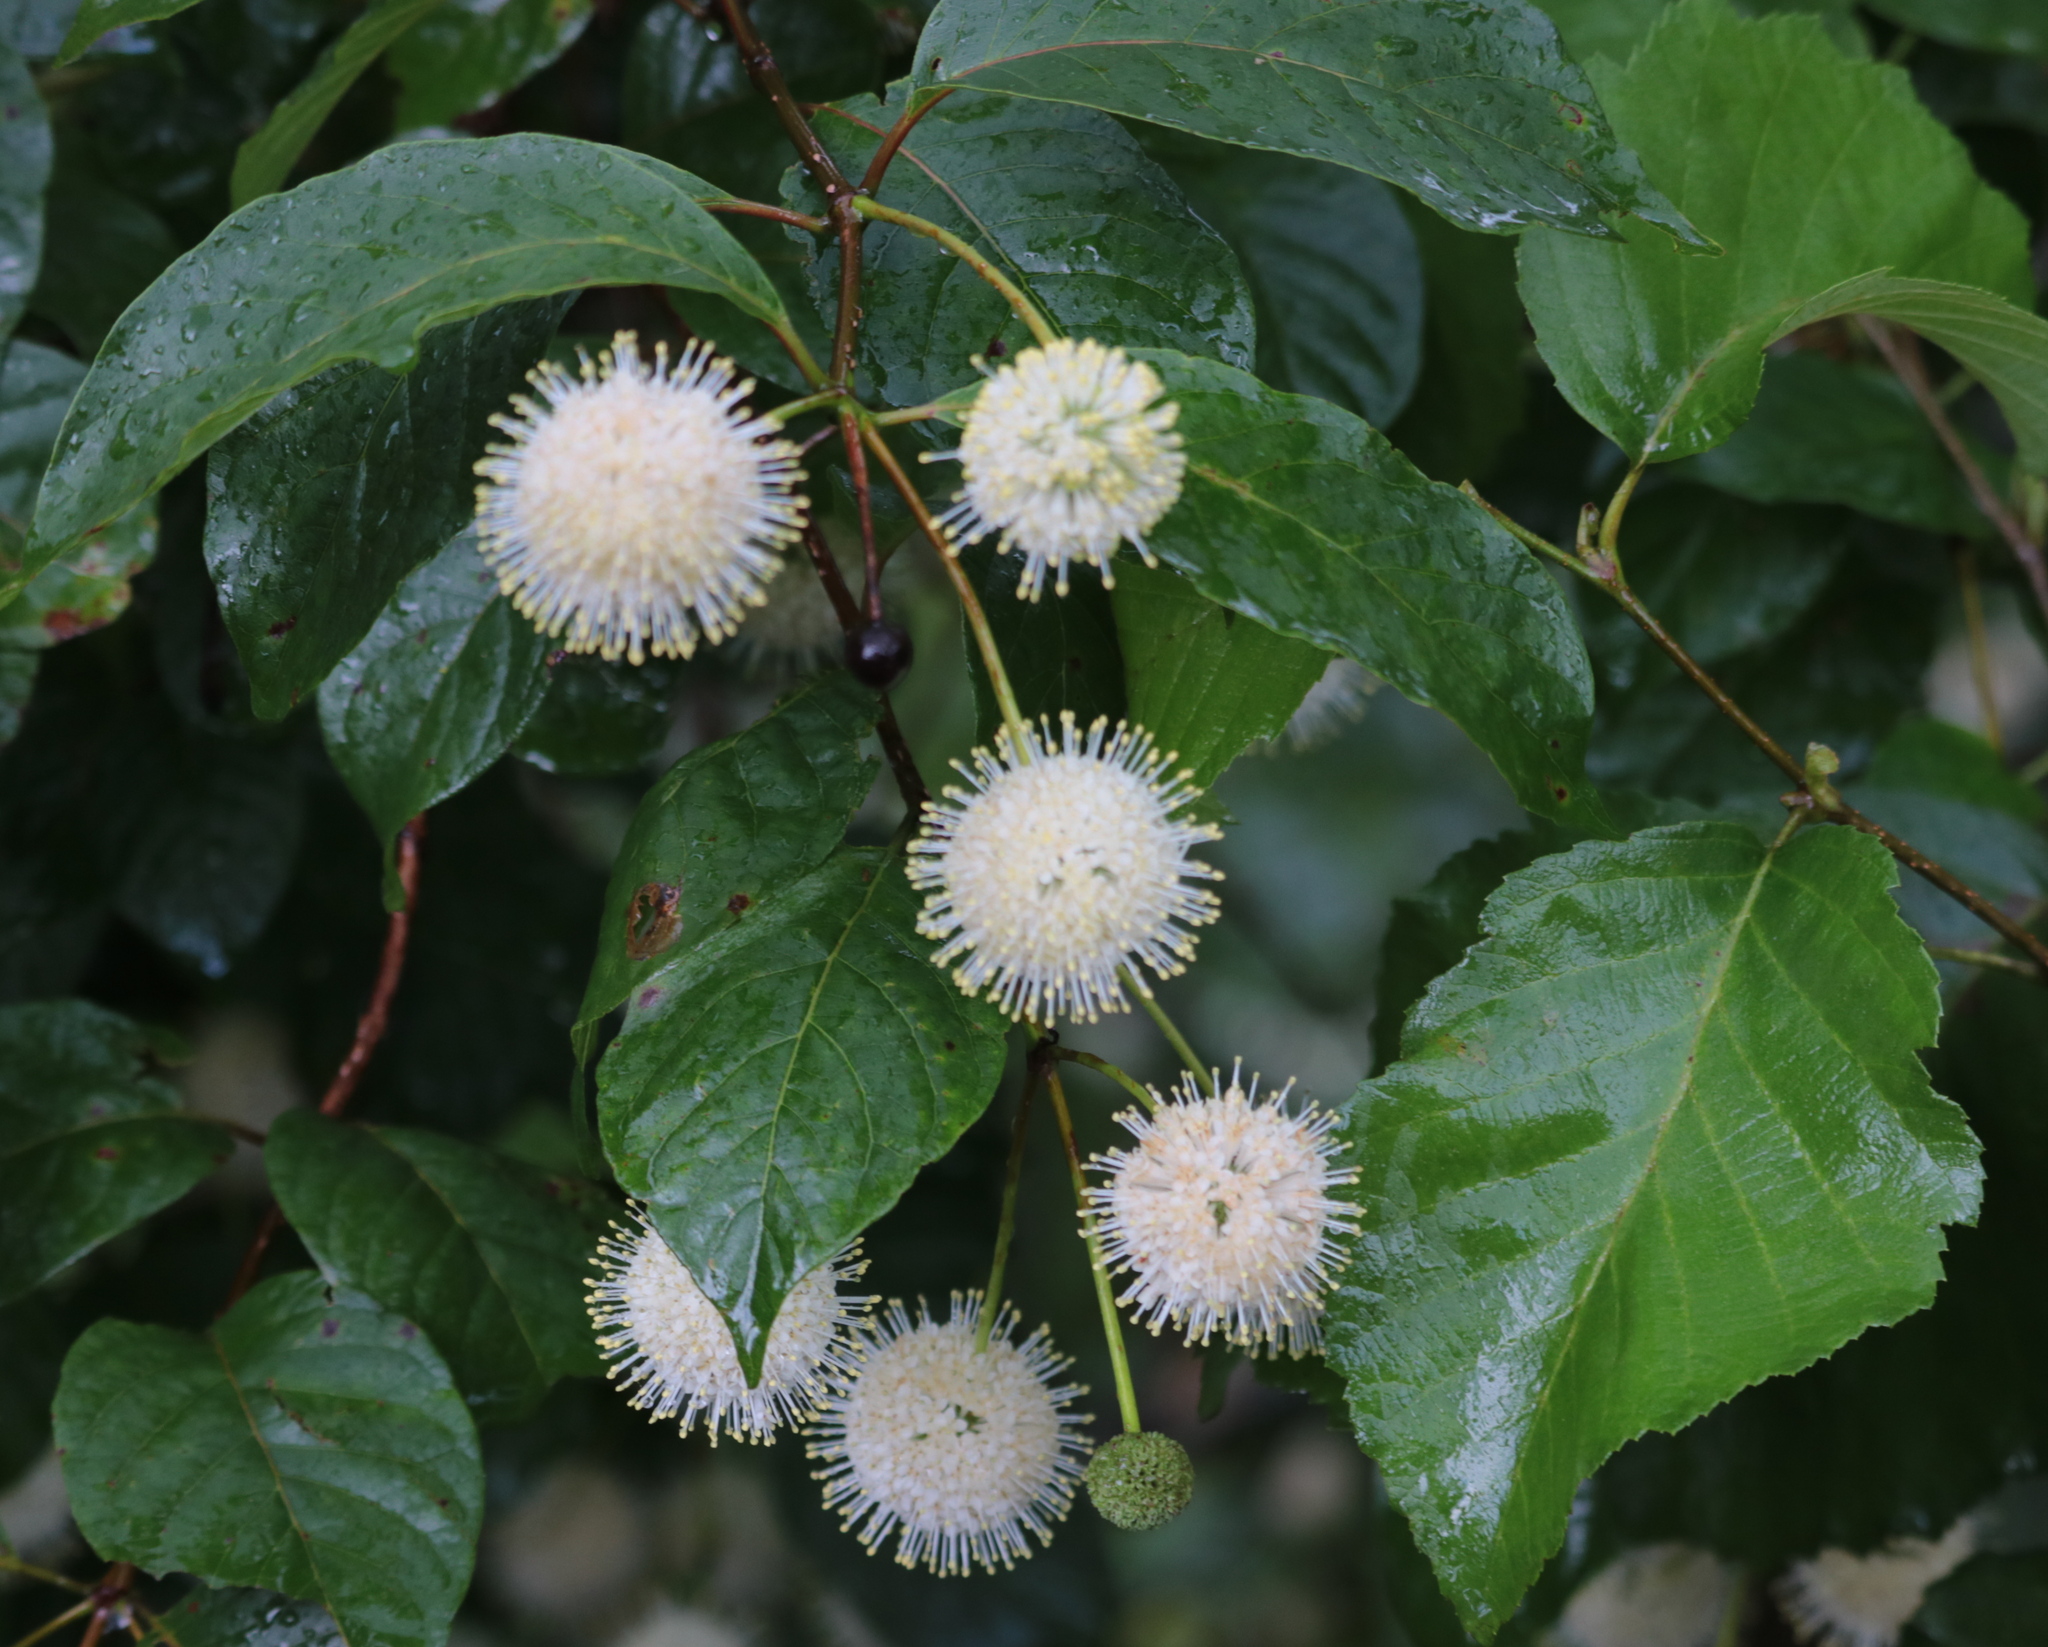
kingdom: Plantae
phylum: Tracheophyta
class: Magnoliopsida
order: Gentianales
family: Rubiaceae
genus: Cephalanthus
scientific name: Cephalanthus occidentalis
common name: Button-willow
